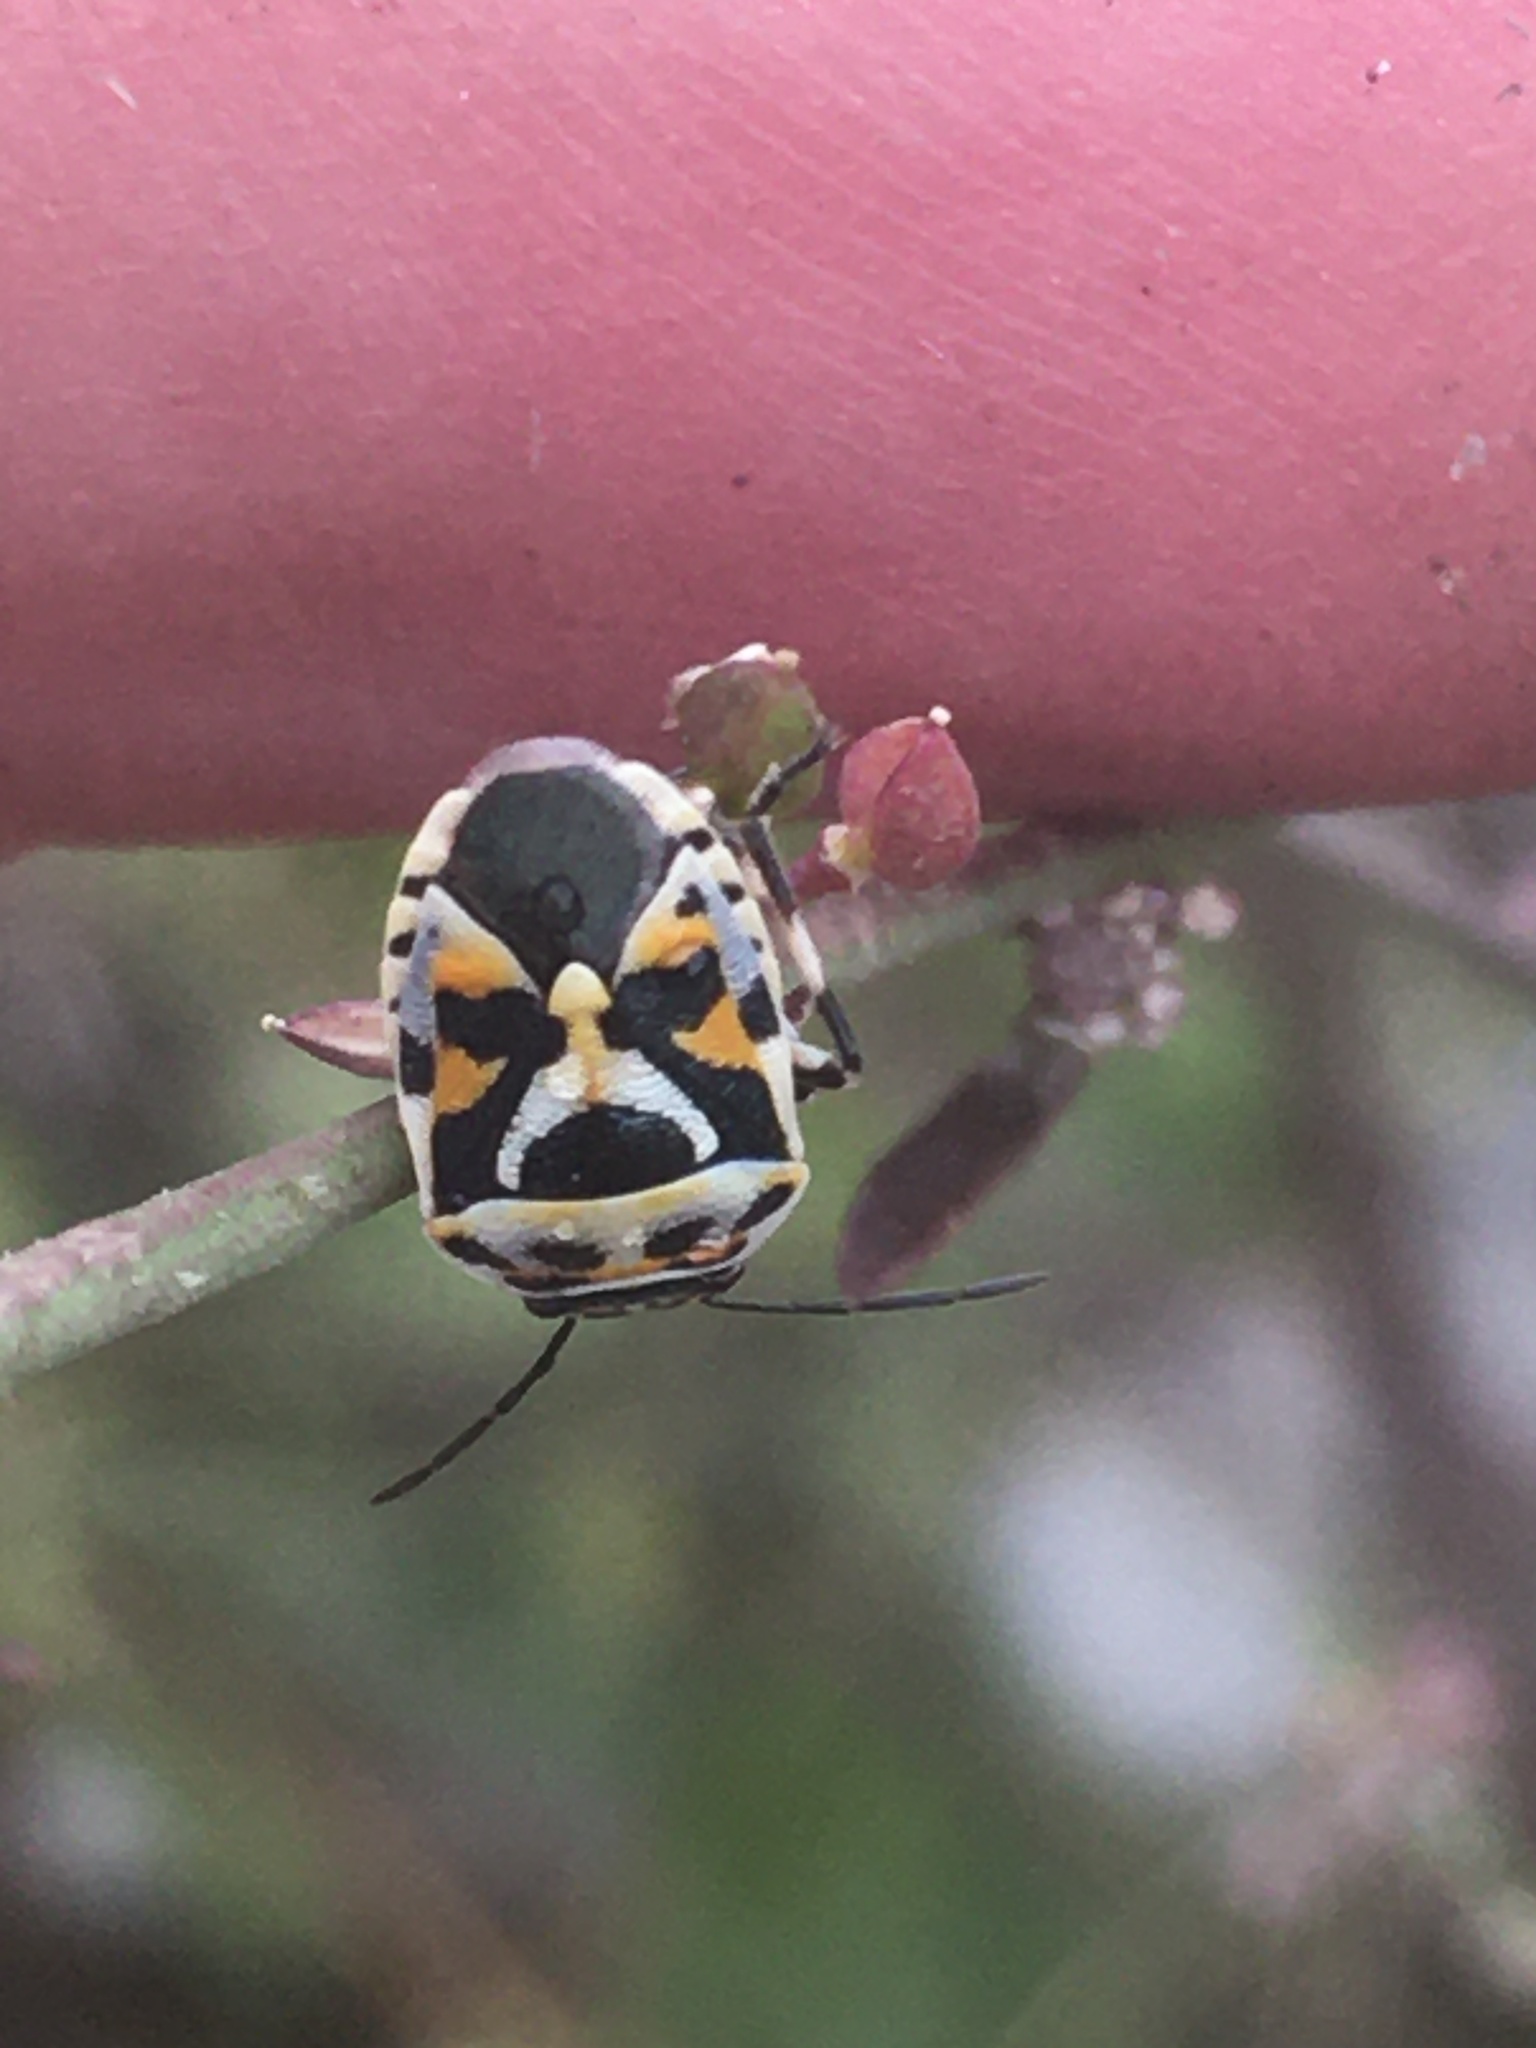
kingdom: Animalia
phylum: Arthropoda
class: Insecta
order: Hemiptera
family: Pentatomidae
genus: Eurydema
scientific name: Eurydema ornata
